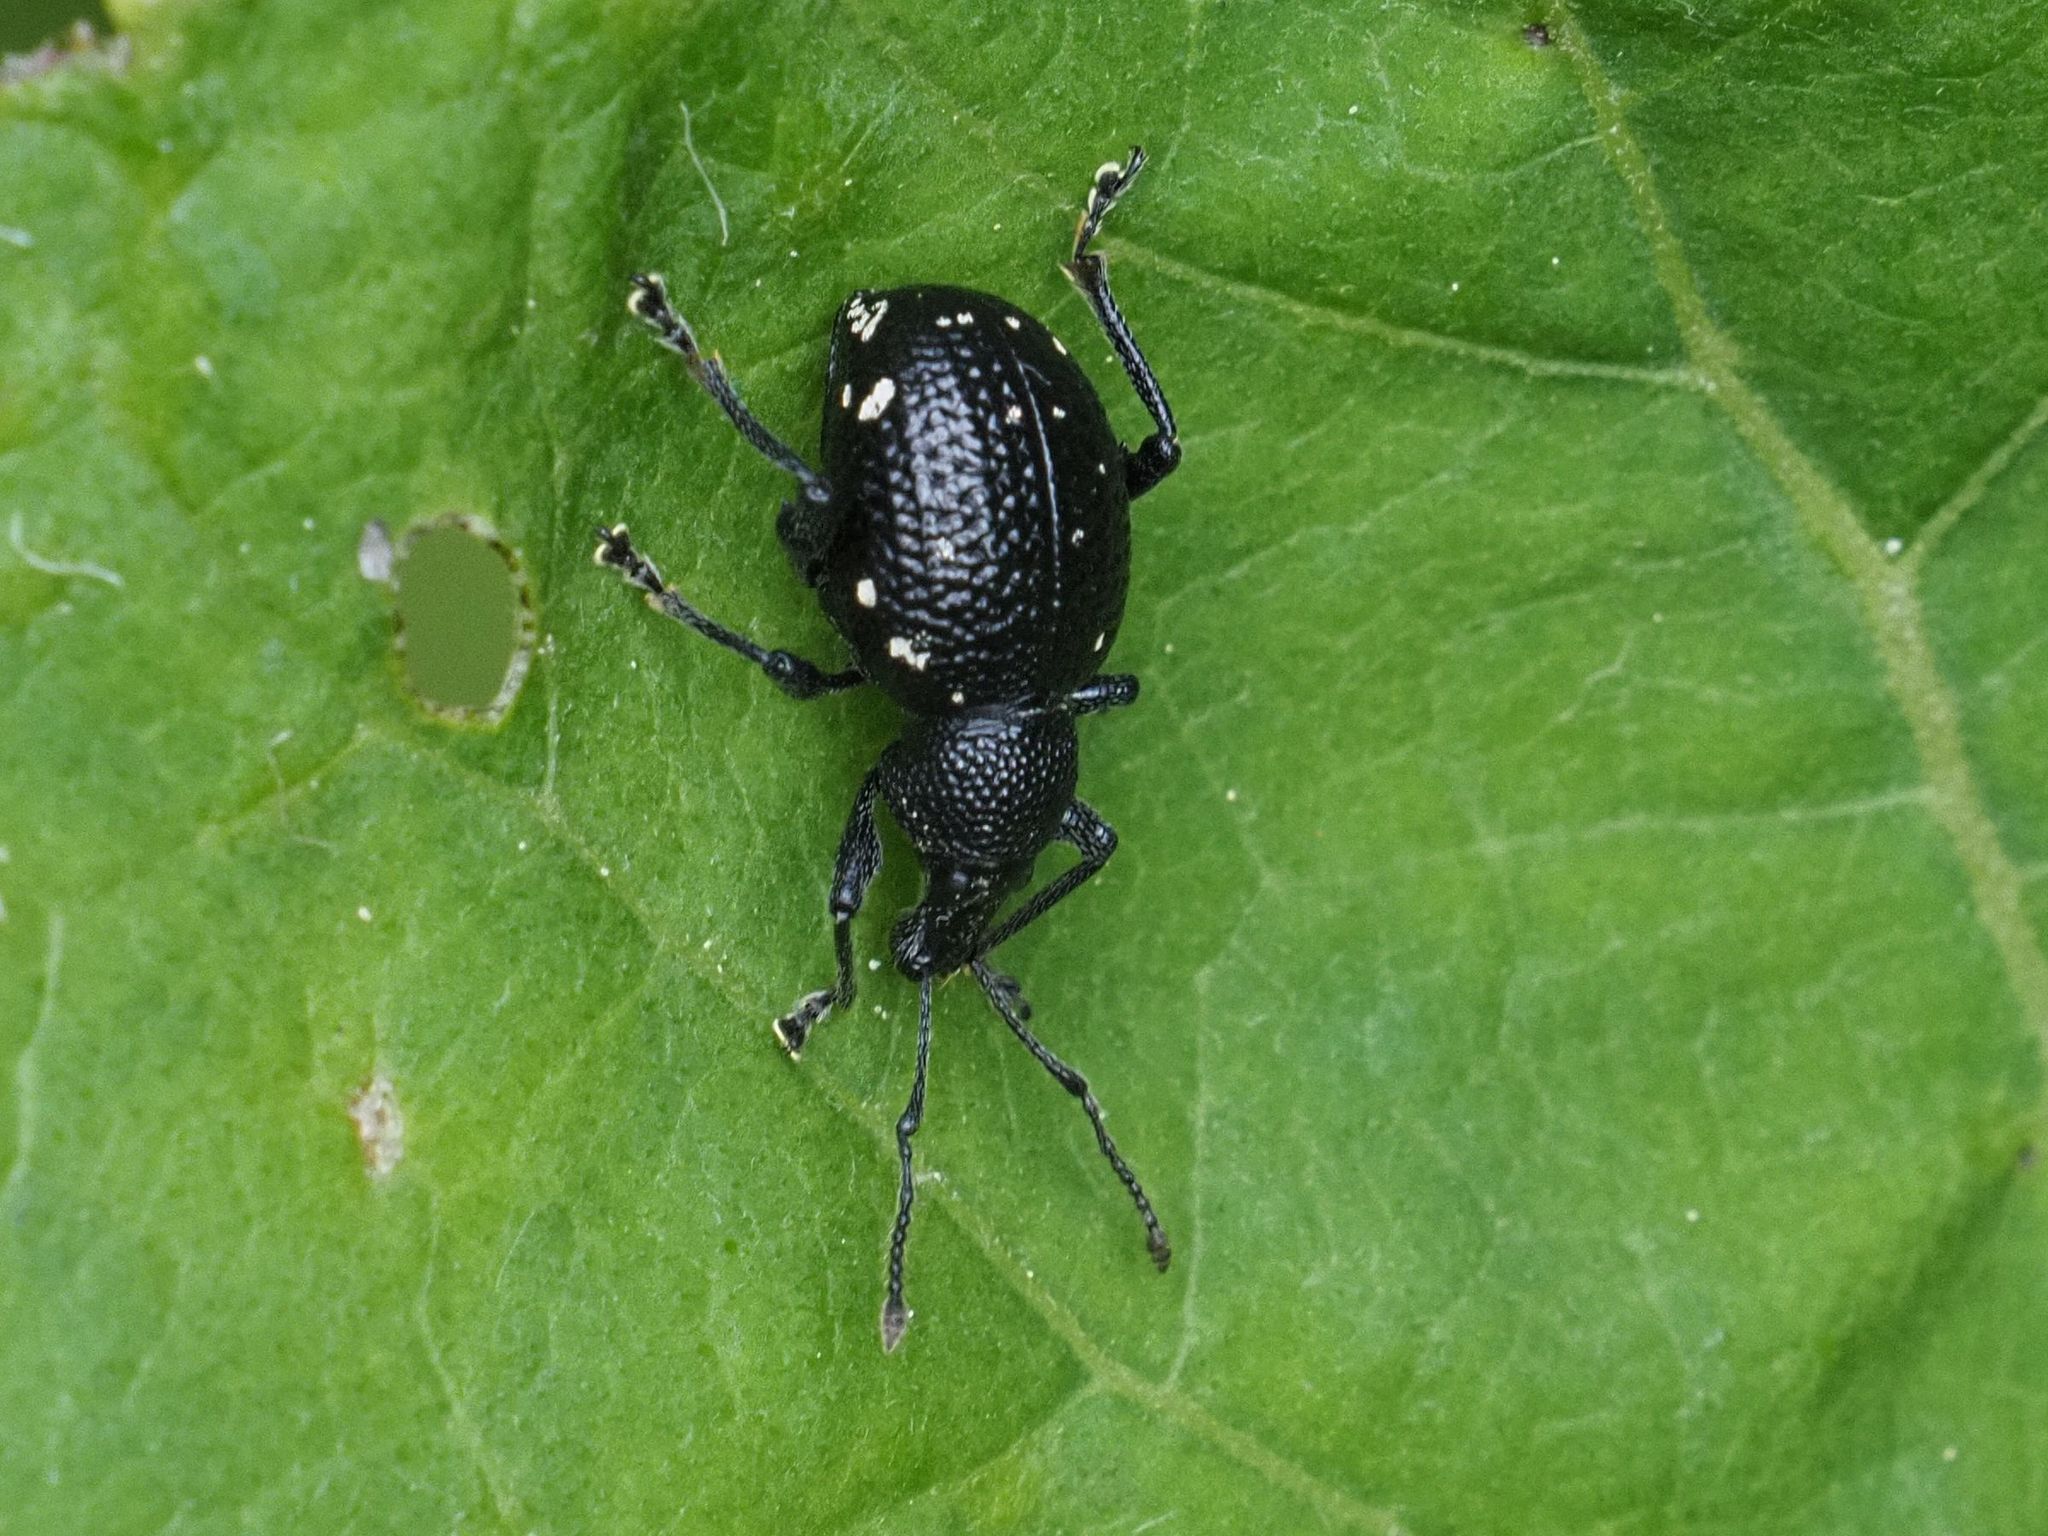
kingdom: Animalia
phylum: Arthropoda
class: Insecta
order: Coleoptera
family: Curculionidae
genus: Otiorhynchus
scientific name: Otiorhynchus gemmatus
